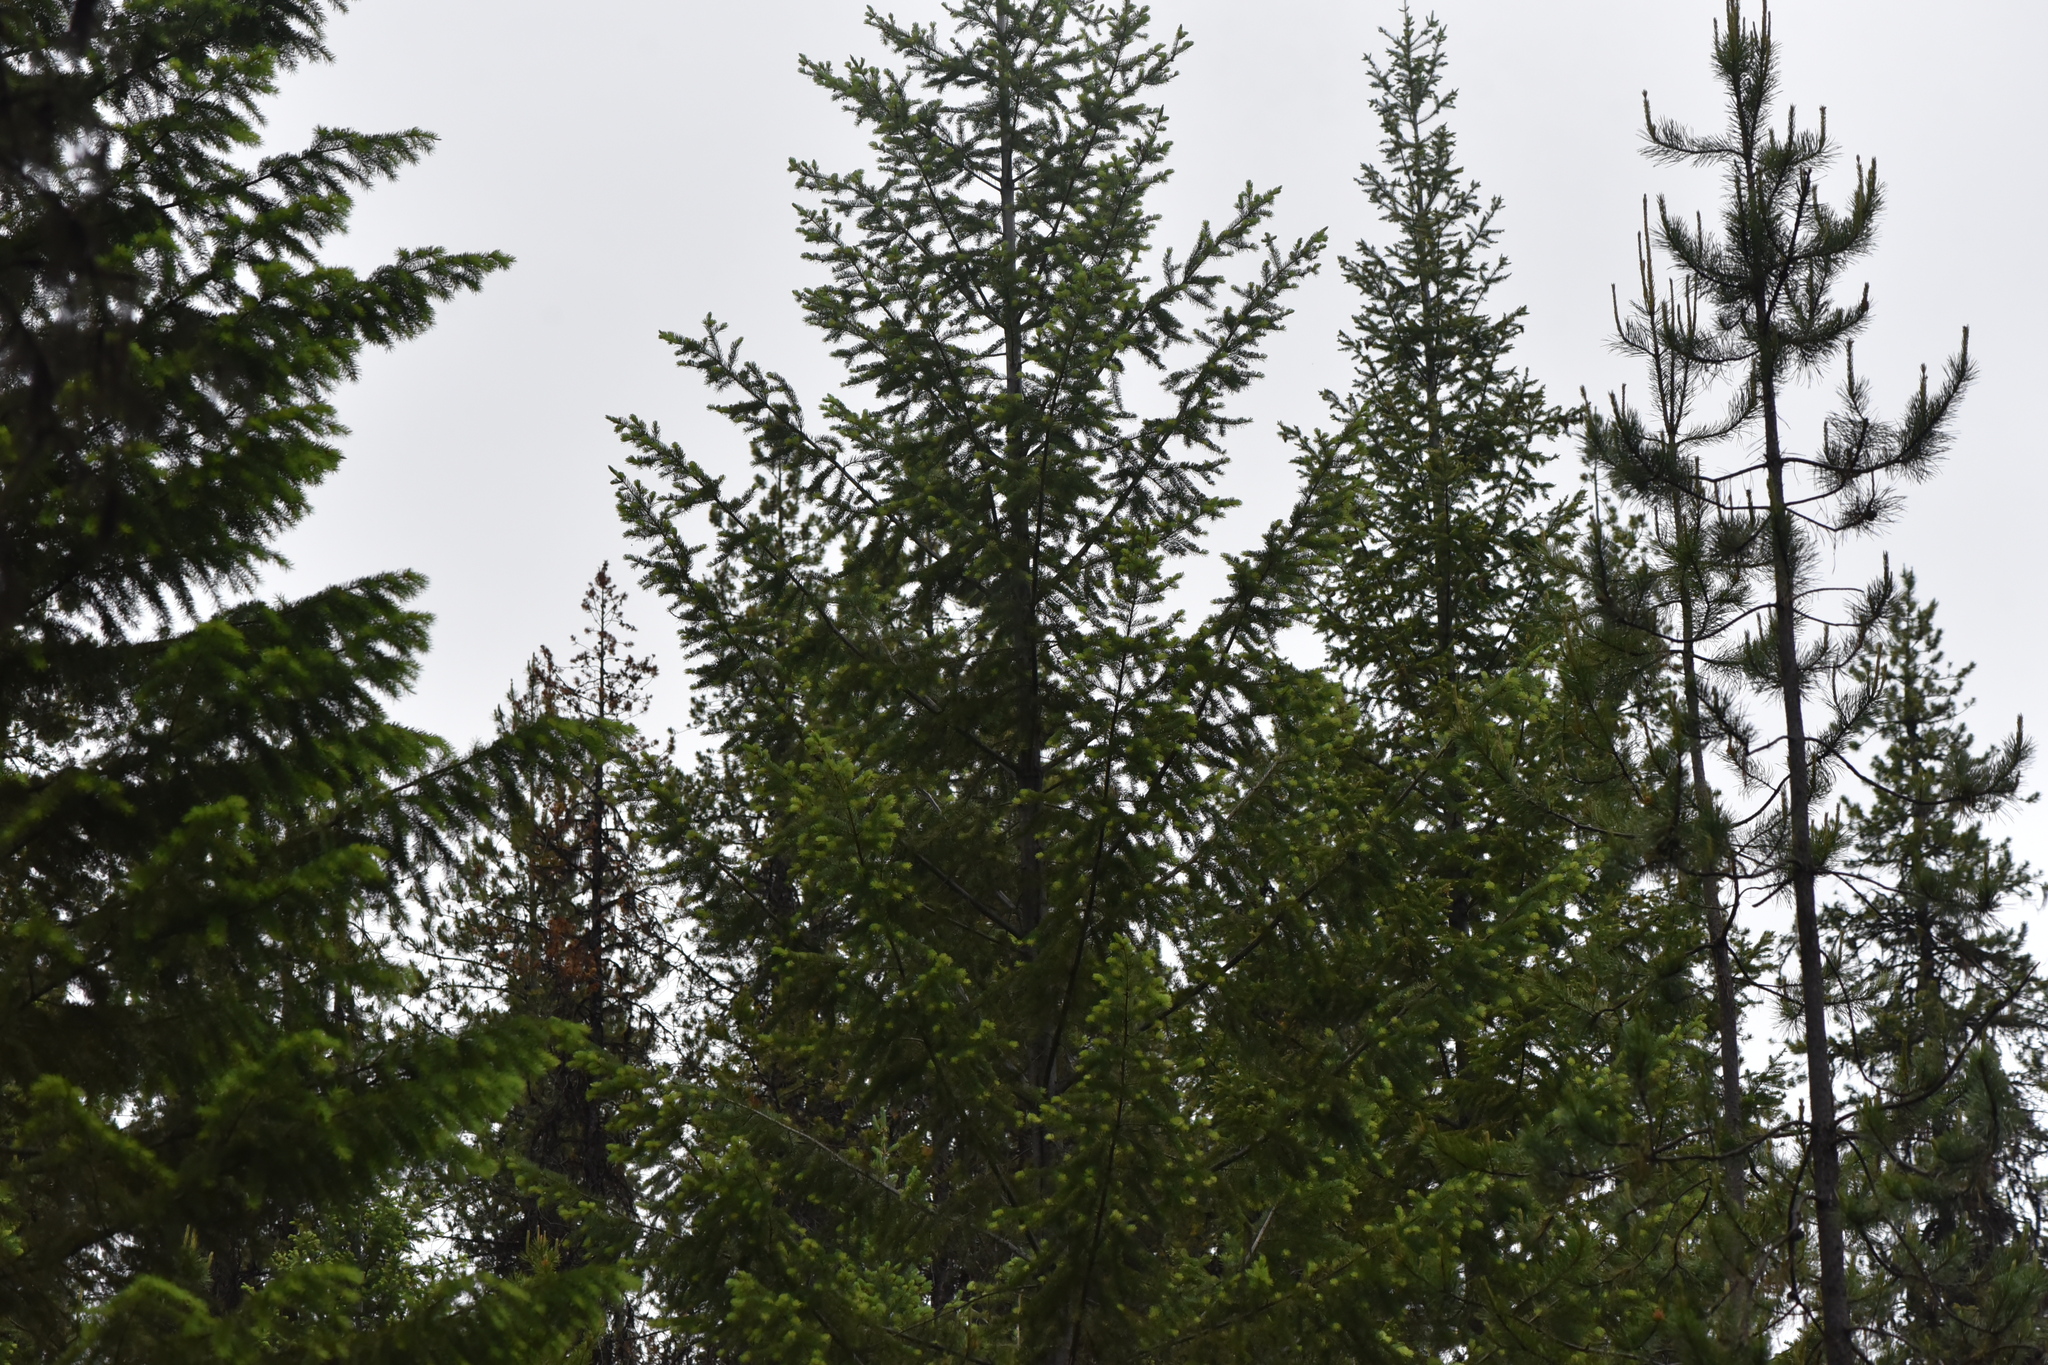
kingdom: Plantae
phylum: Tracheophyta
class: Pinopsida
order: Pinales
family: Pinaceae
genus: Pseudotsuga
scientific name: Pseudotsuga menziesii
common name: Douglas fir
